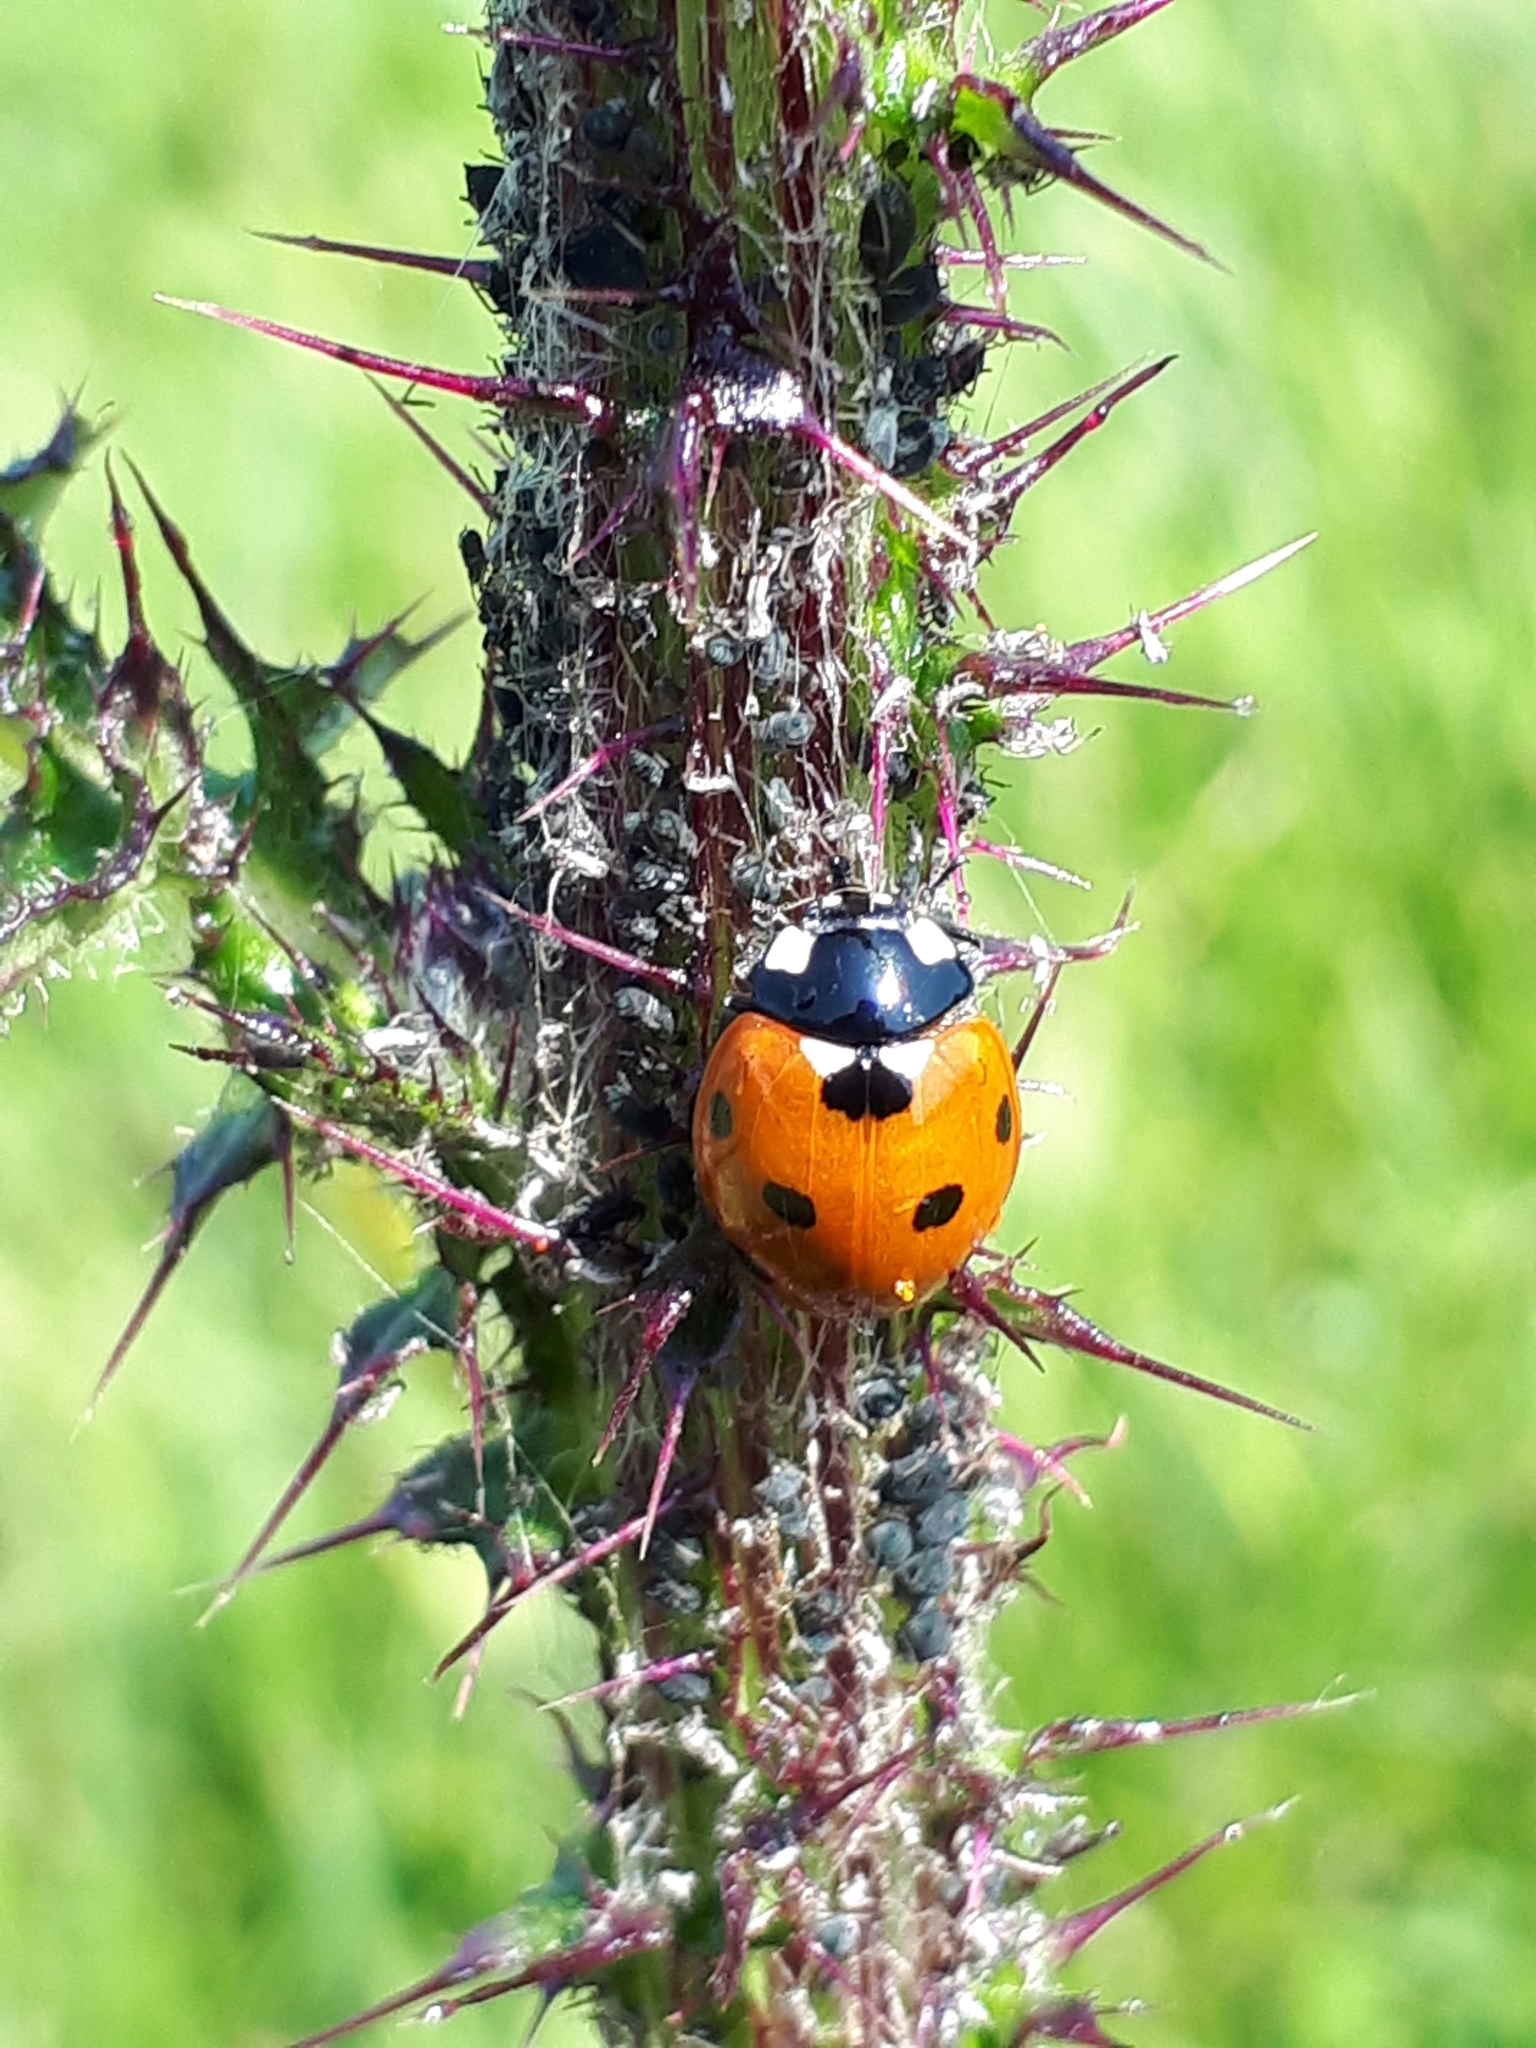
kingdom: Animalia
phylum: Arthropoda
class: Insecta
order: Coleoptera
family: Coccinellidae
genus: Coccinella
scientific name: Coccinella septempunctata
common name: Sevenspotted lady beetle
